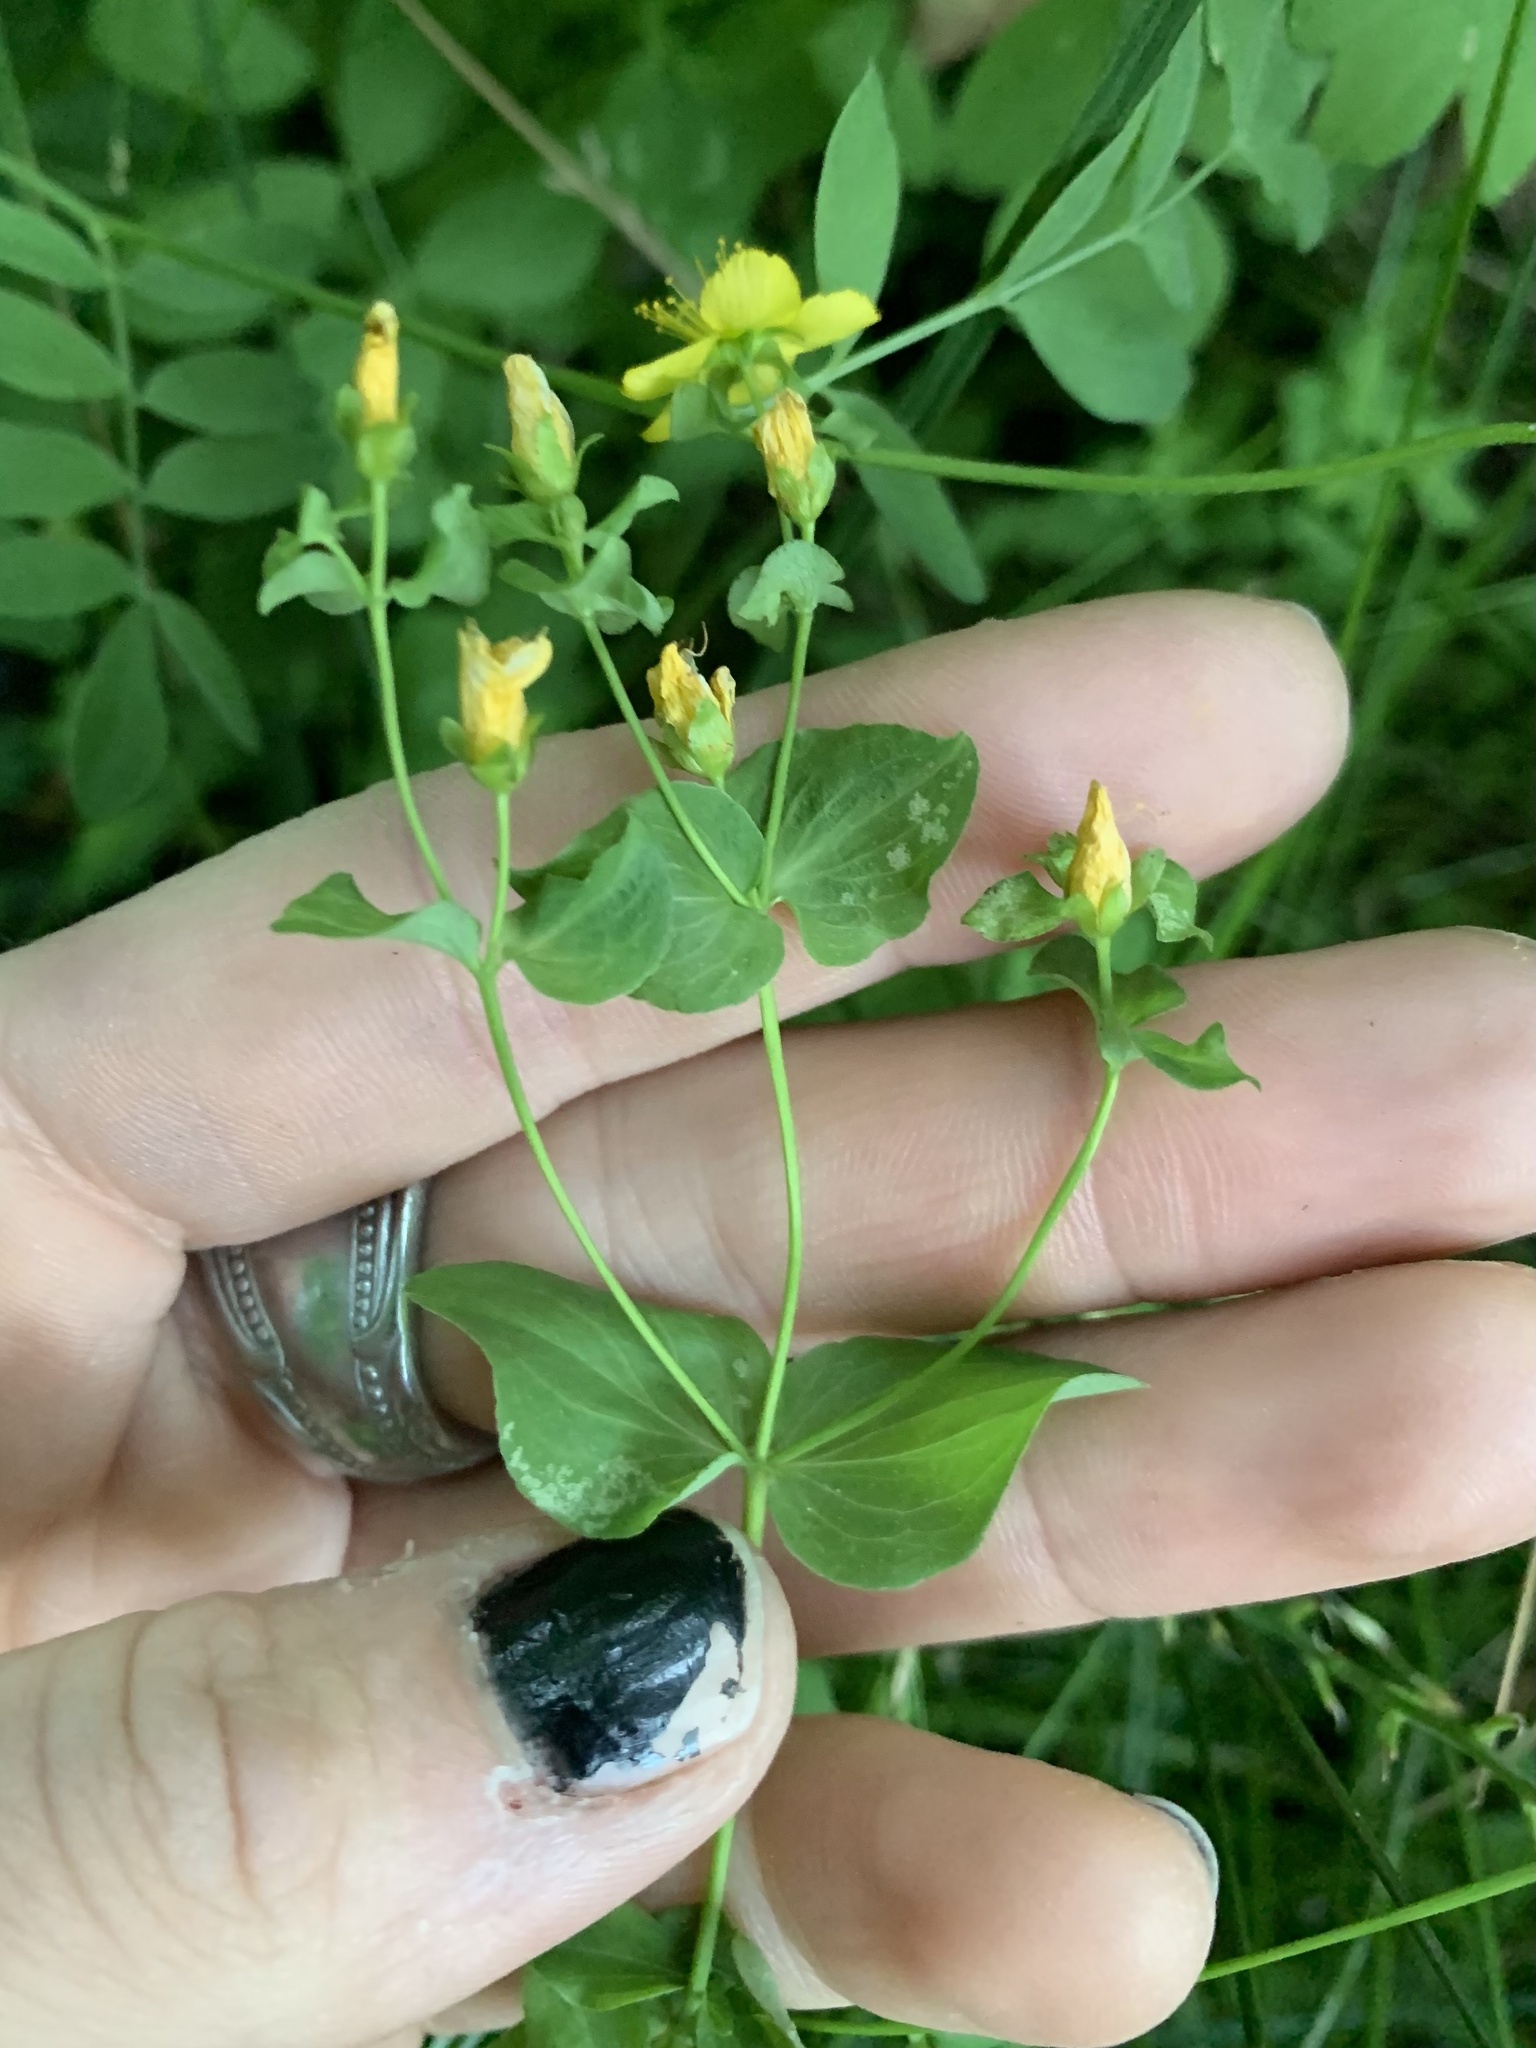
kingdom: Plantae
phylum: Tracheophyta
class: Magnoliopsida
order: Malpighiales
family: Hypericaceae
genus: Hypericum
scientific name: Hypericum scouleri
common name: Scouler's st. john's-wort
